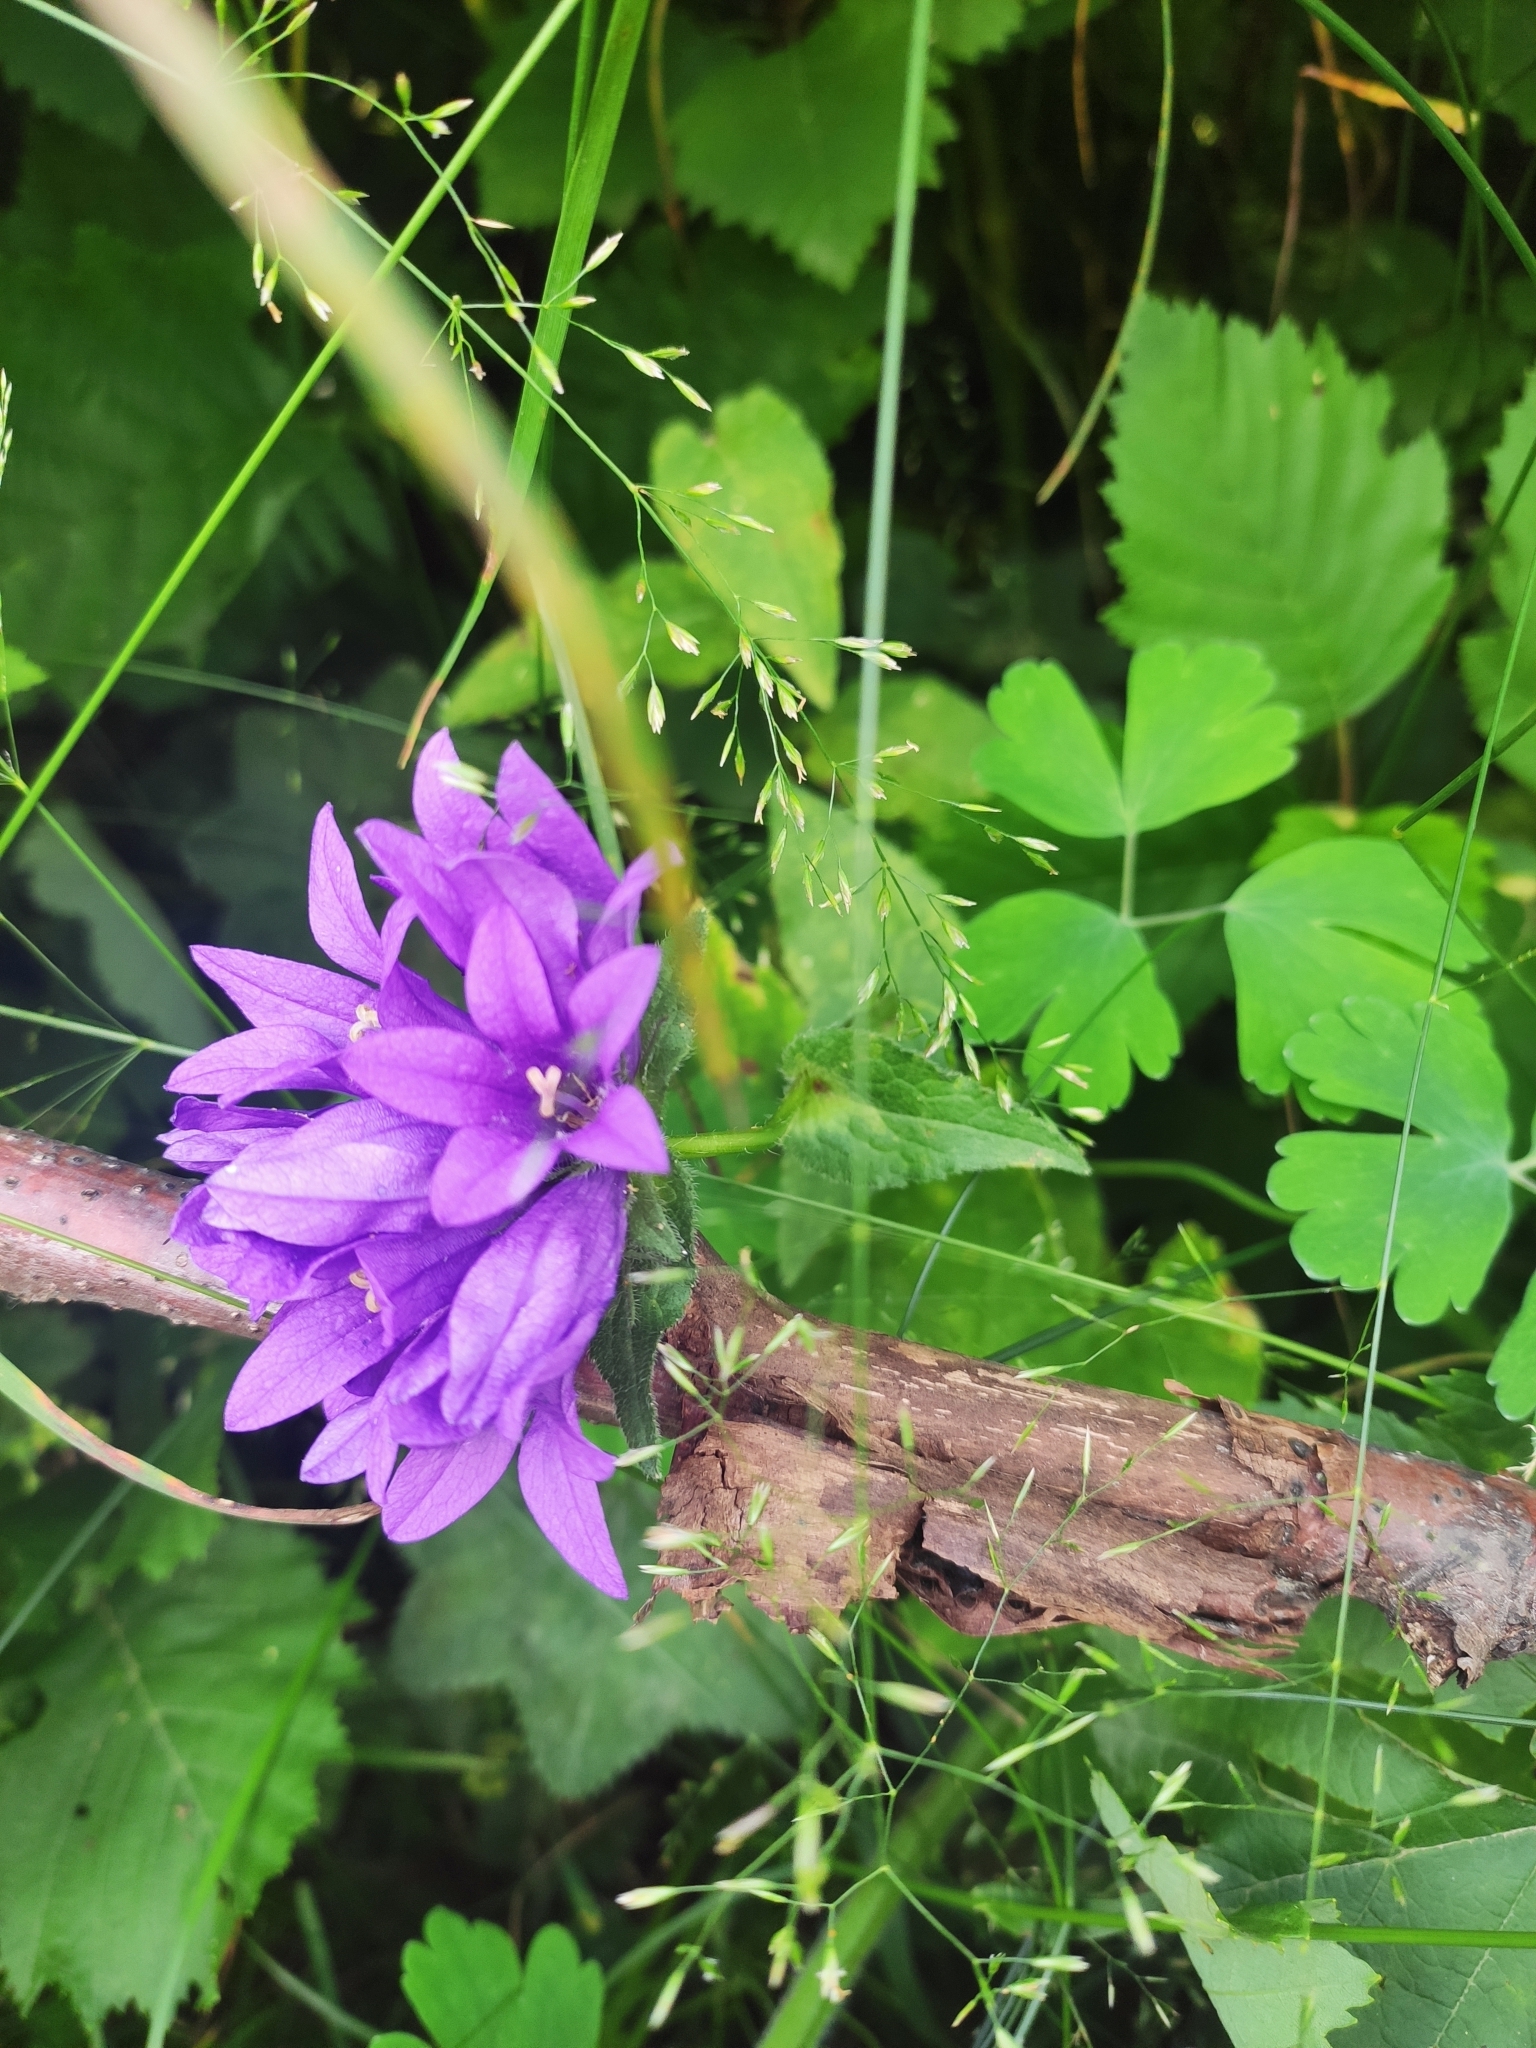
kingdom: Plantae
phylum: Tracheophyta
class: Magnoliopsida
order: Asterales
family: Campanulaceae
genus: Campanula
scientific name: Campanula glomerata
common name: Clustered bellflower
